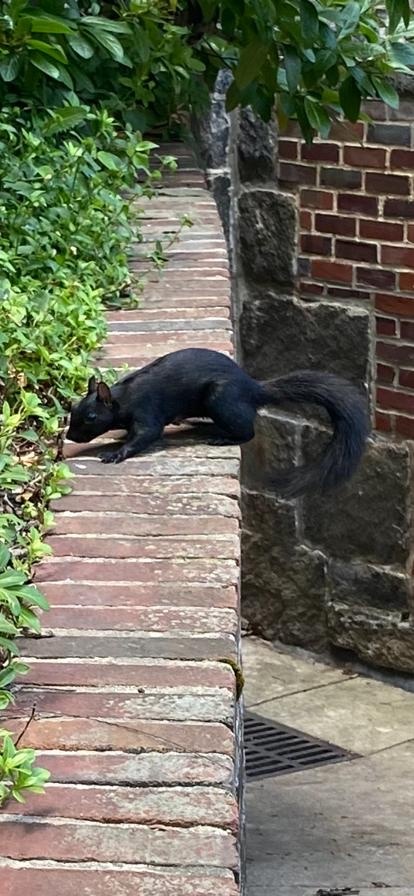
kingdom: Animalia
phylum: Chordata
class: Mammalia
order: Rodentia
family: Sciuridae
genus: Sciurus
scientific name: Sciurus carolinensis
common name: Eastern gray squirrel
